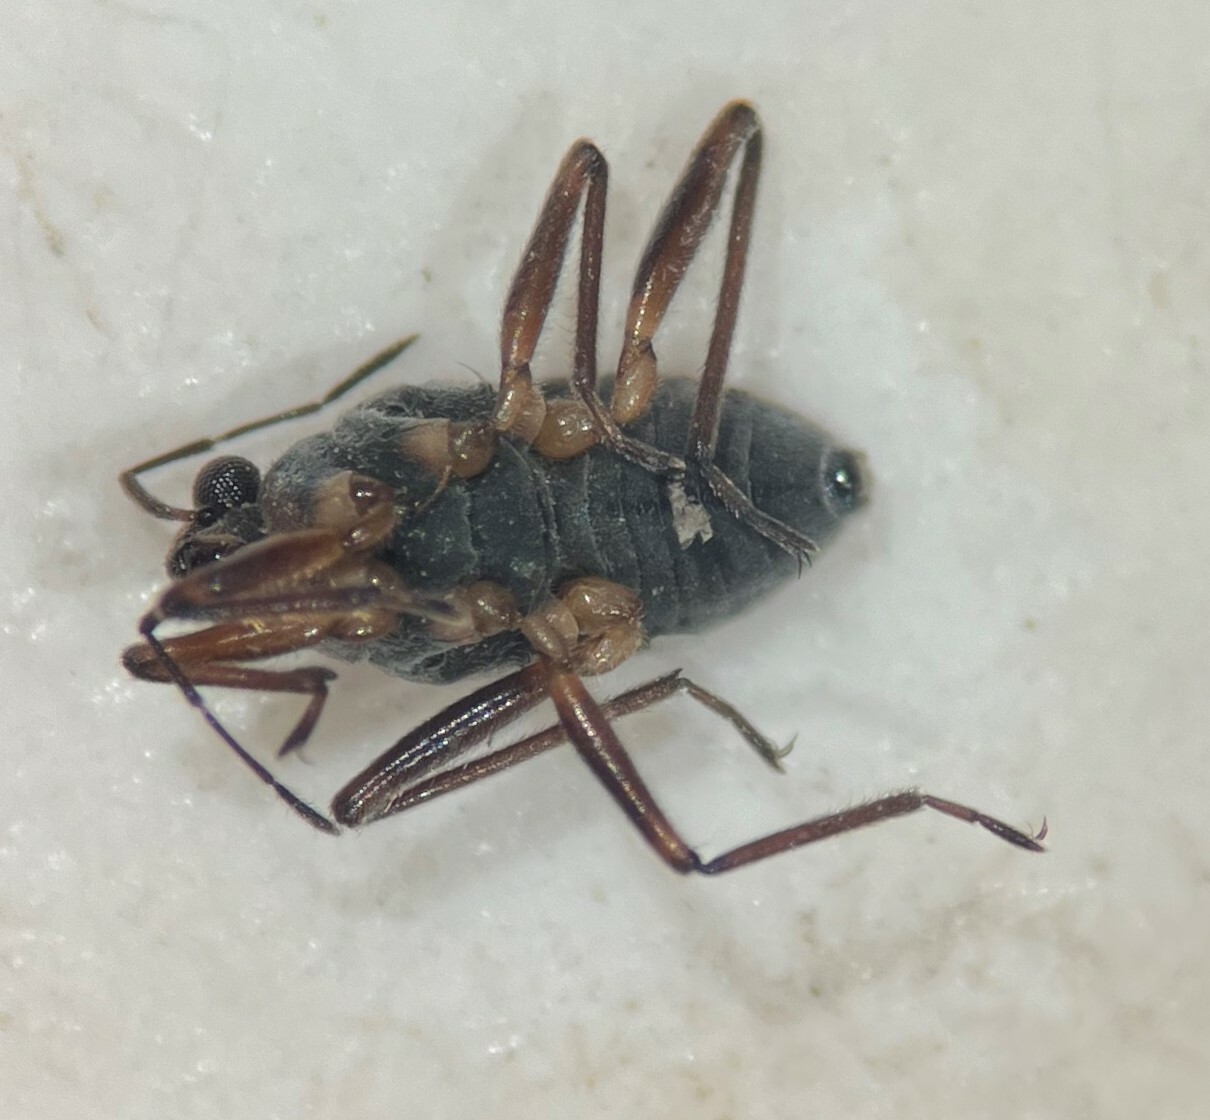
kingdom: Animalia
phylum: Arthropoda
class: Insecta
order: Hemiptera
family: Veliidae
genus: Microvelia
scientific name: Microvelia americana
